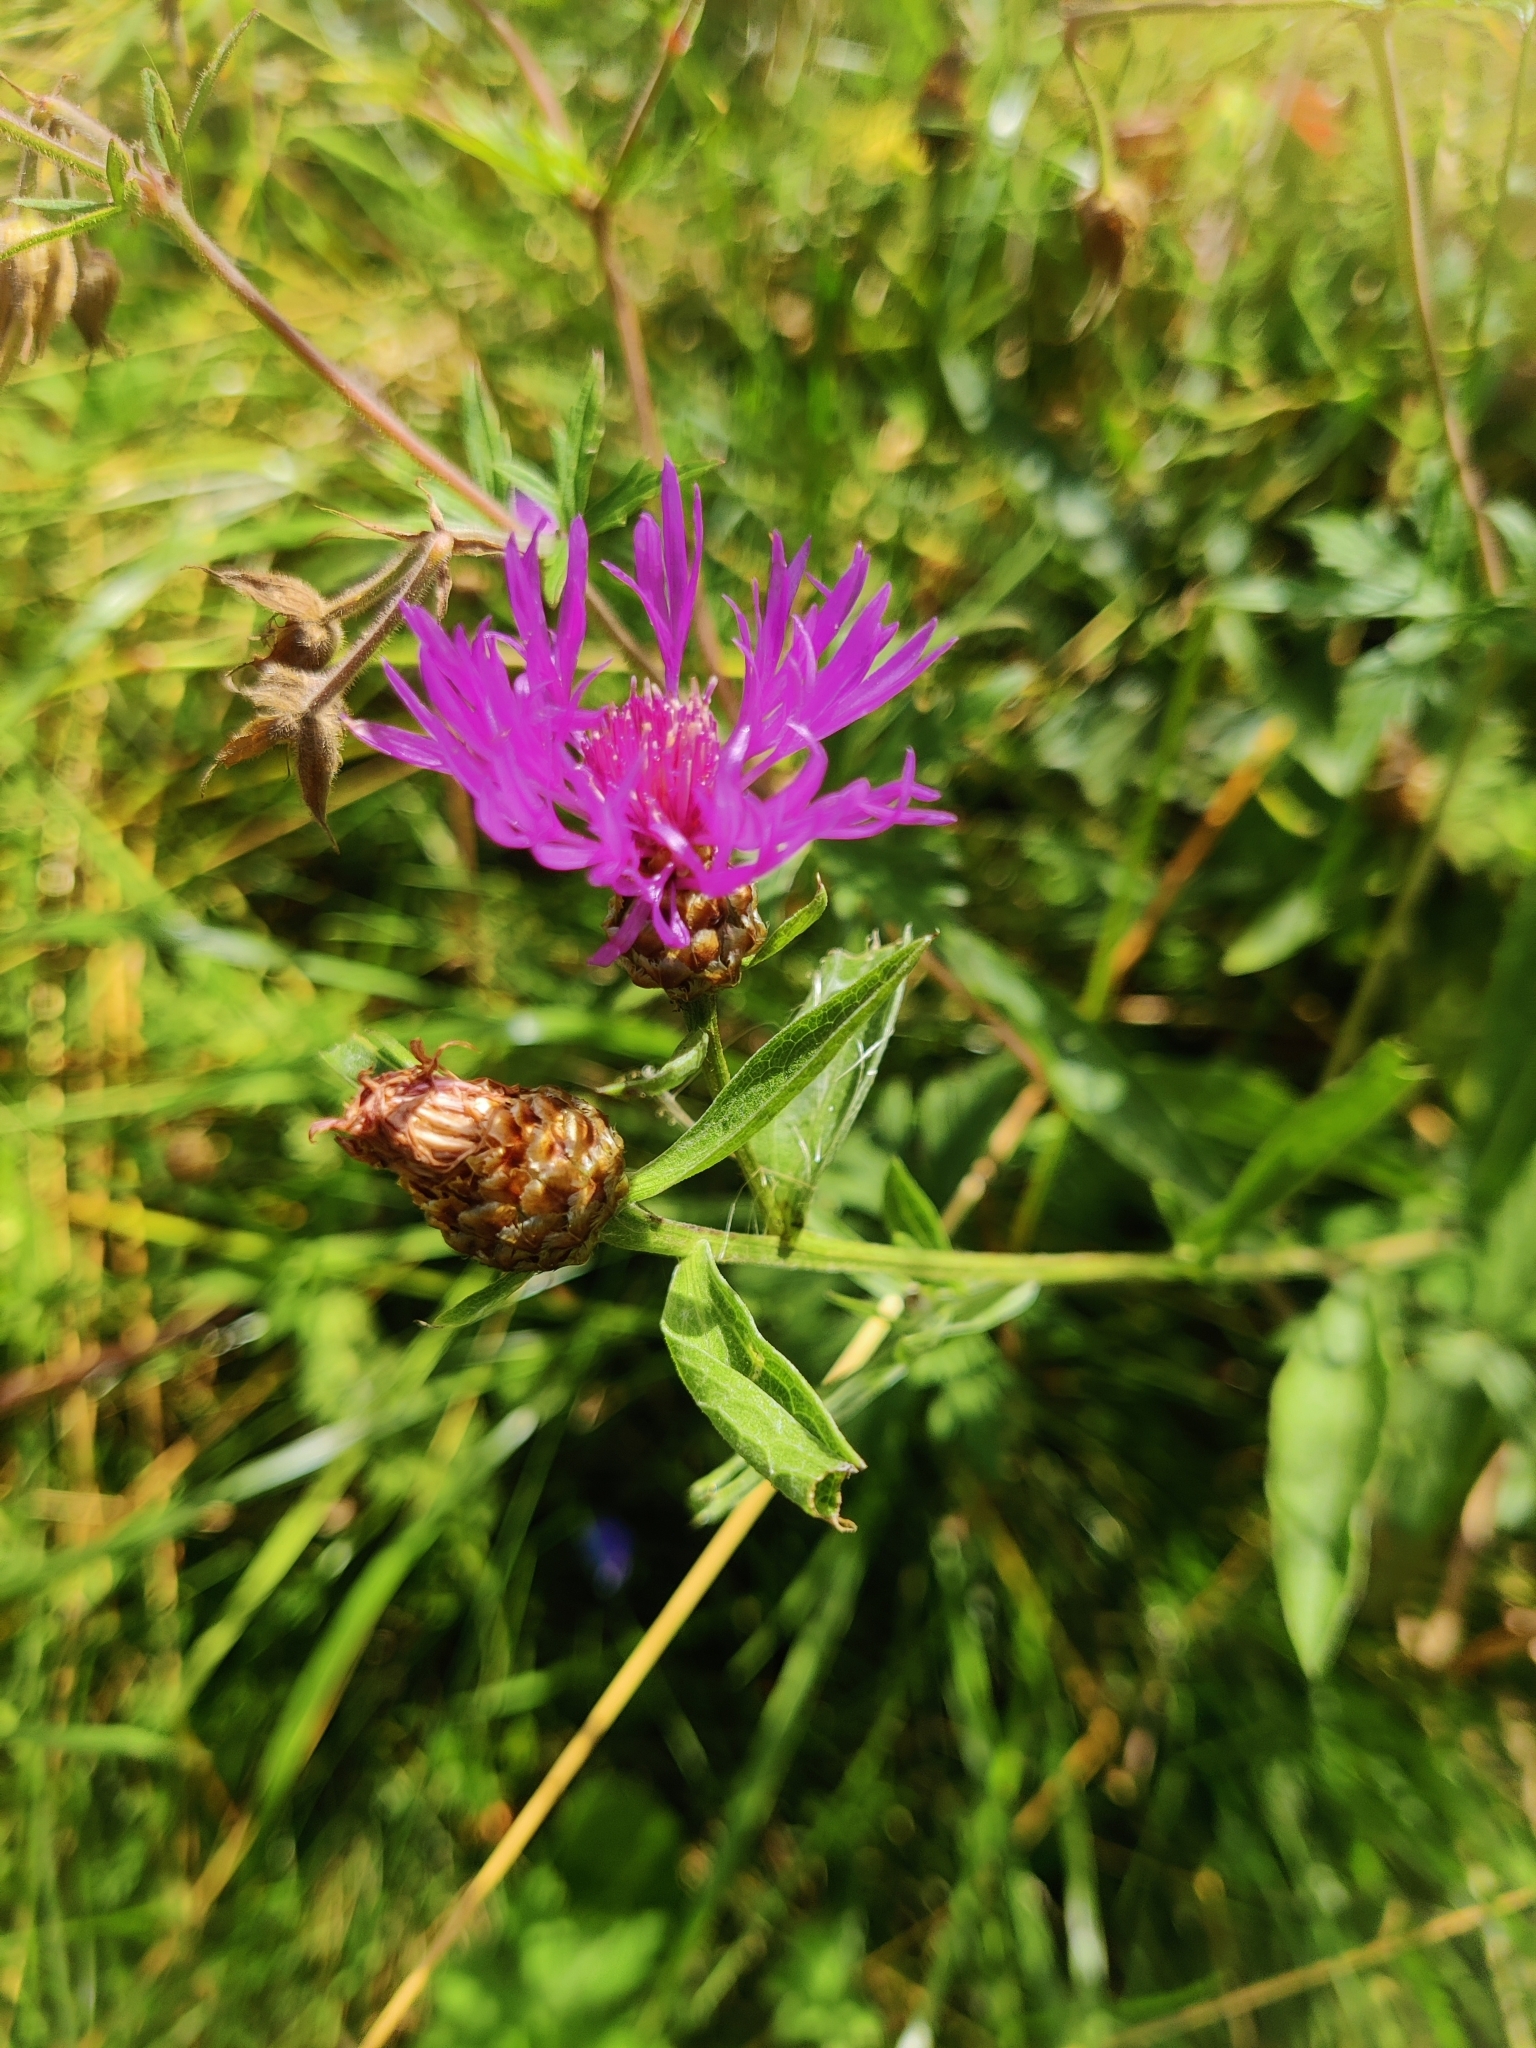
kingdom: Plantae
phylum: Tracheophyta
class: Magnoliopsida
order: Asterales
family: Asteraceae
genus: Centaurea
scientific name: Centaurea jacea
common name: Brown knapweed
